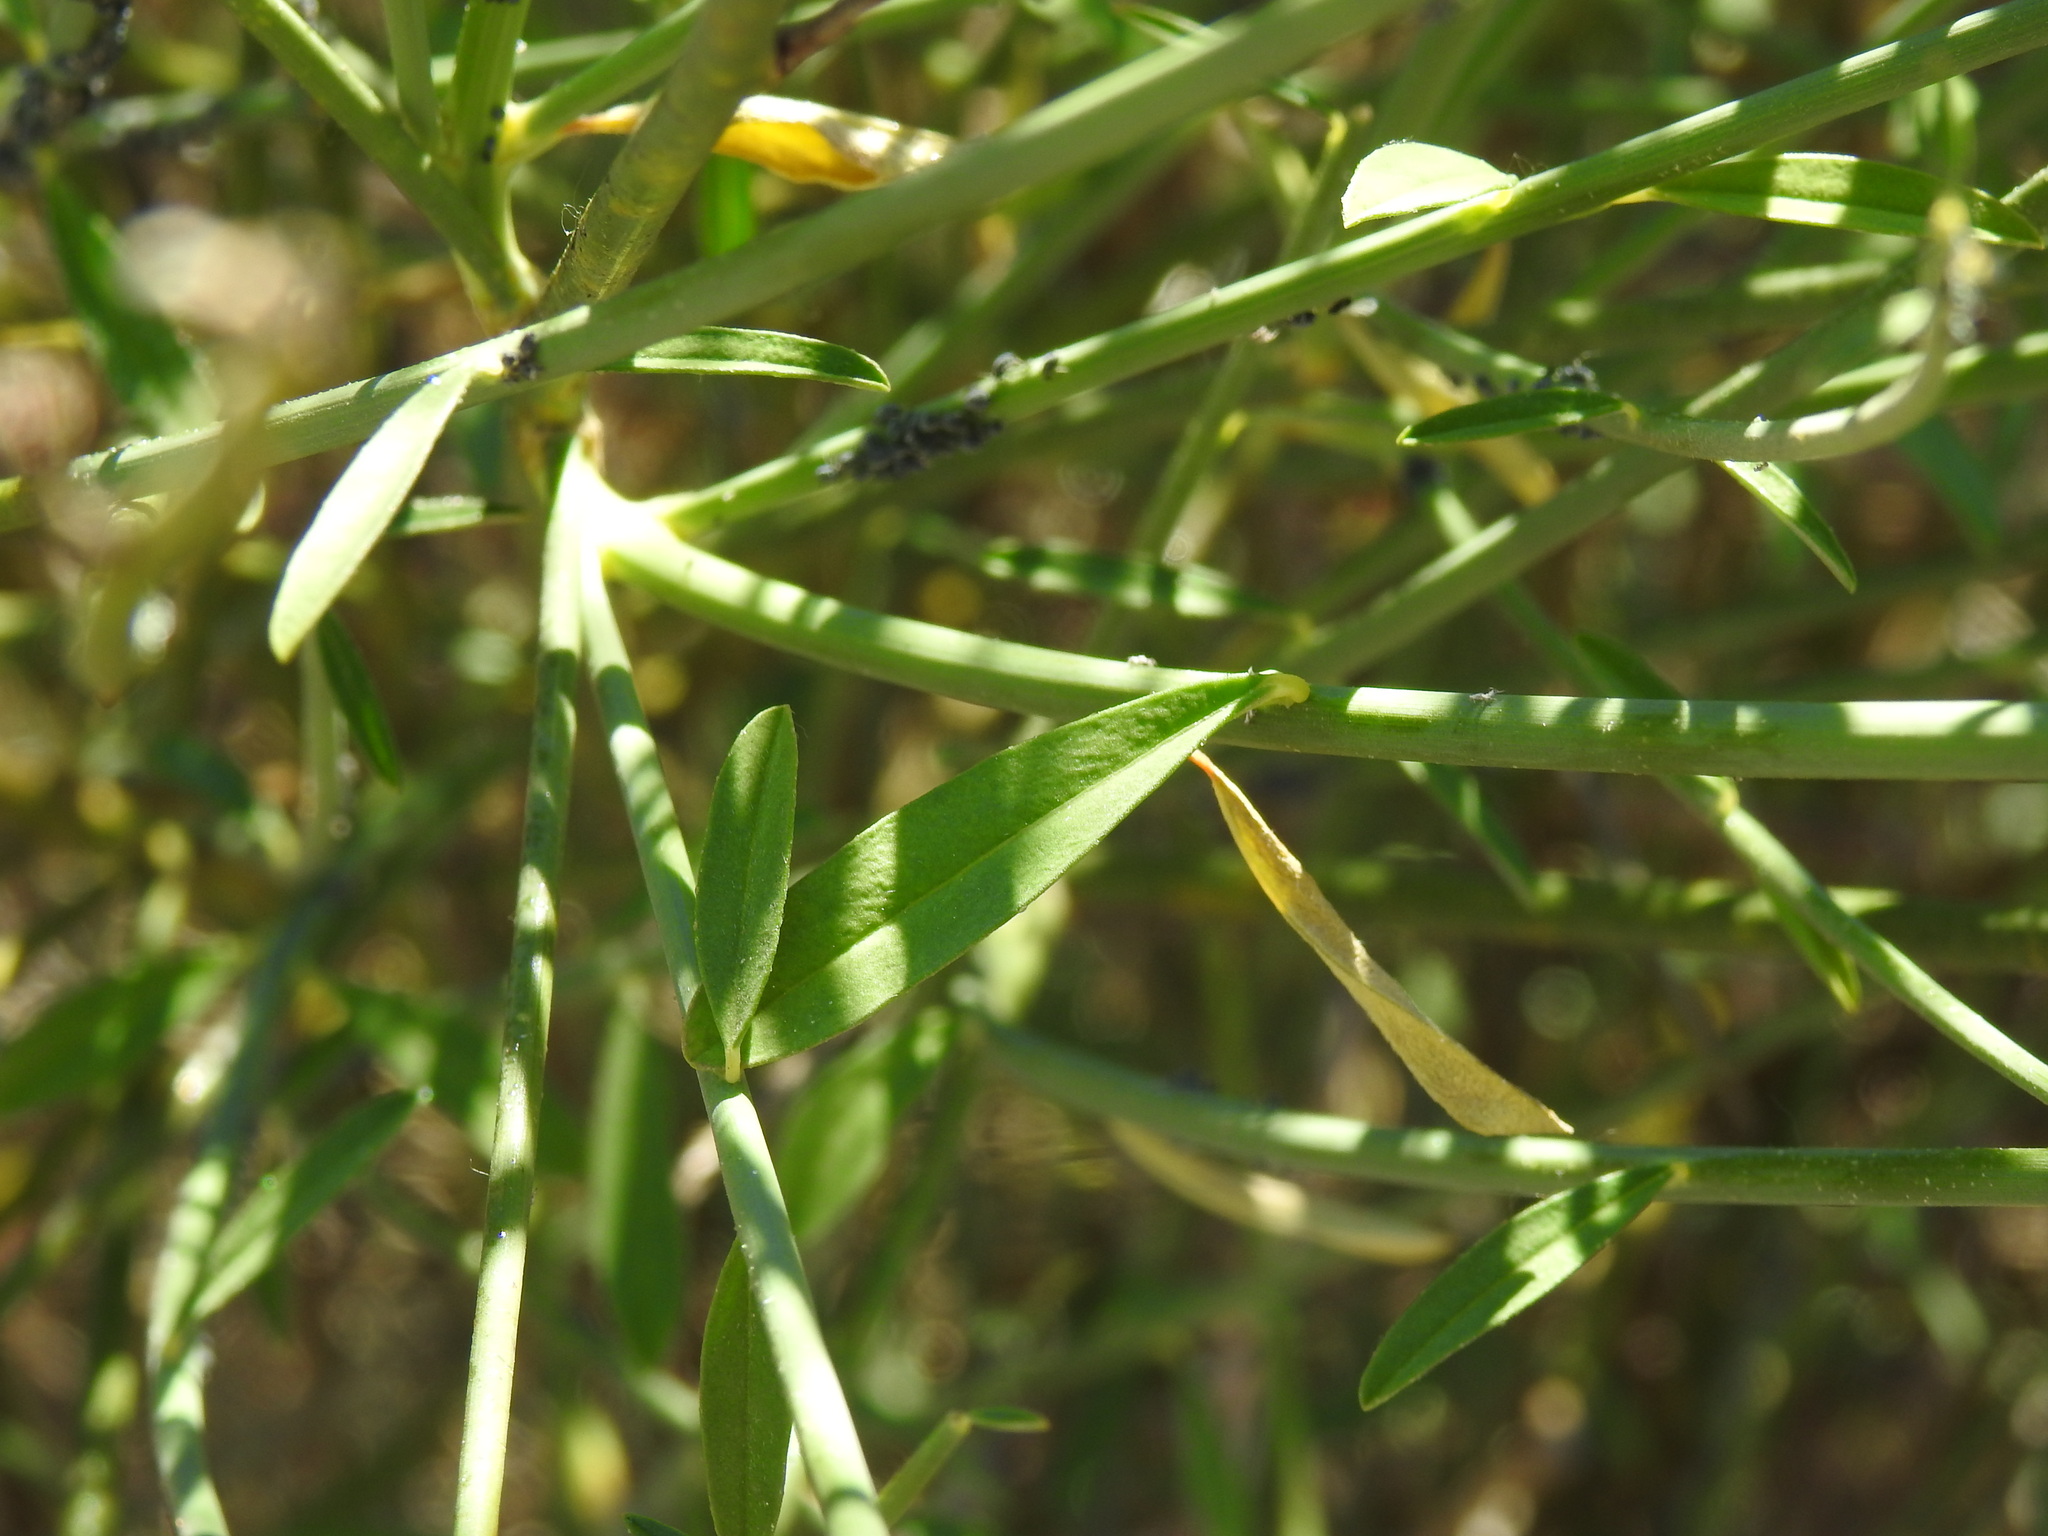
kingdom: Plantae
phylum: Tracheophyta
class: Magnoliopsida
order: Fabales
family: Fabaceae
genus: Spartium
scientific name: Spartium junceum
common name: Spanish broom
